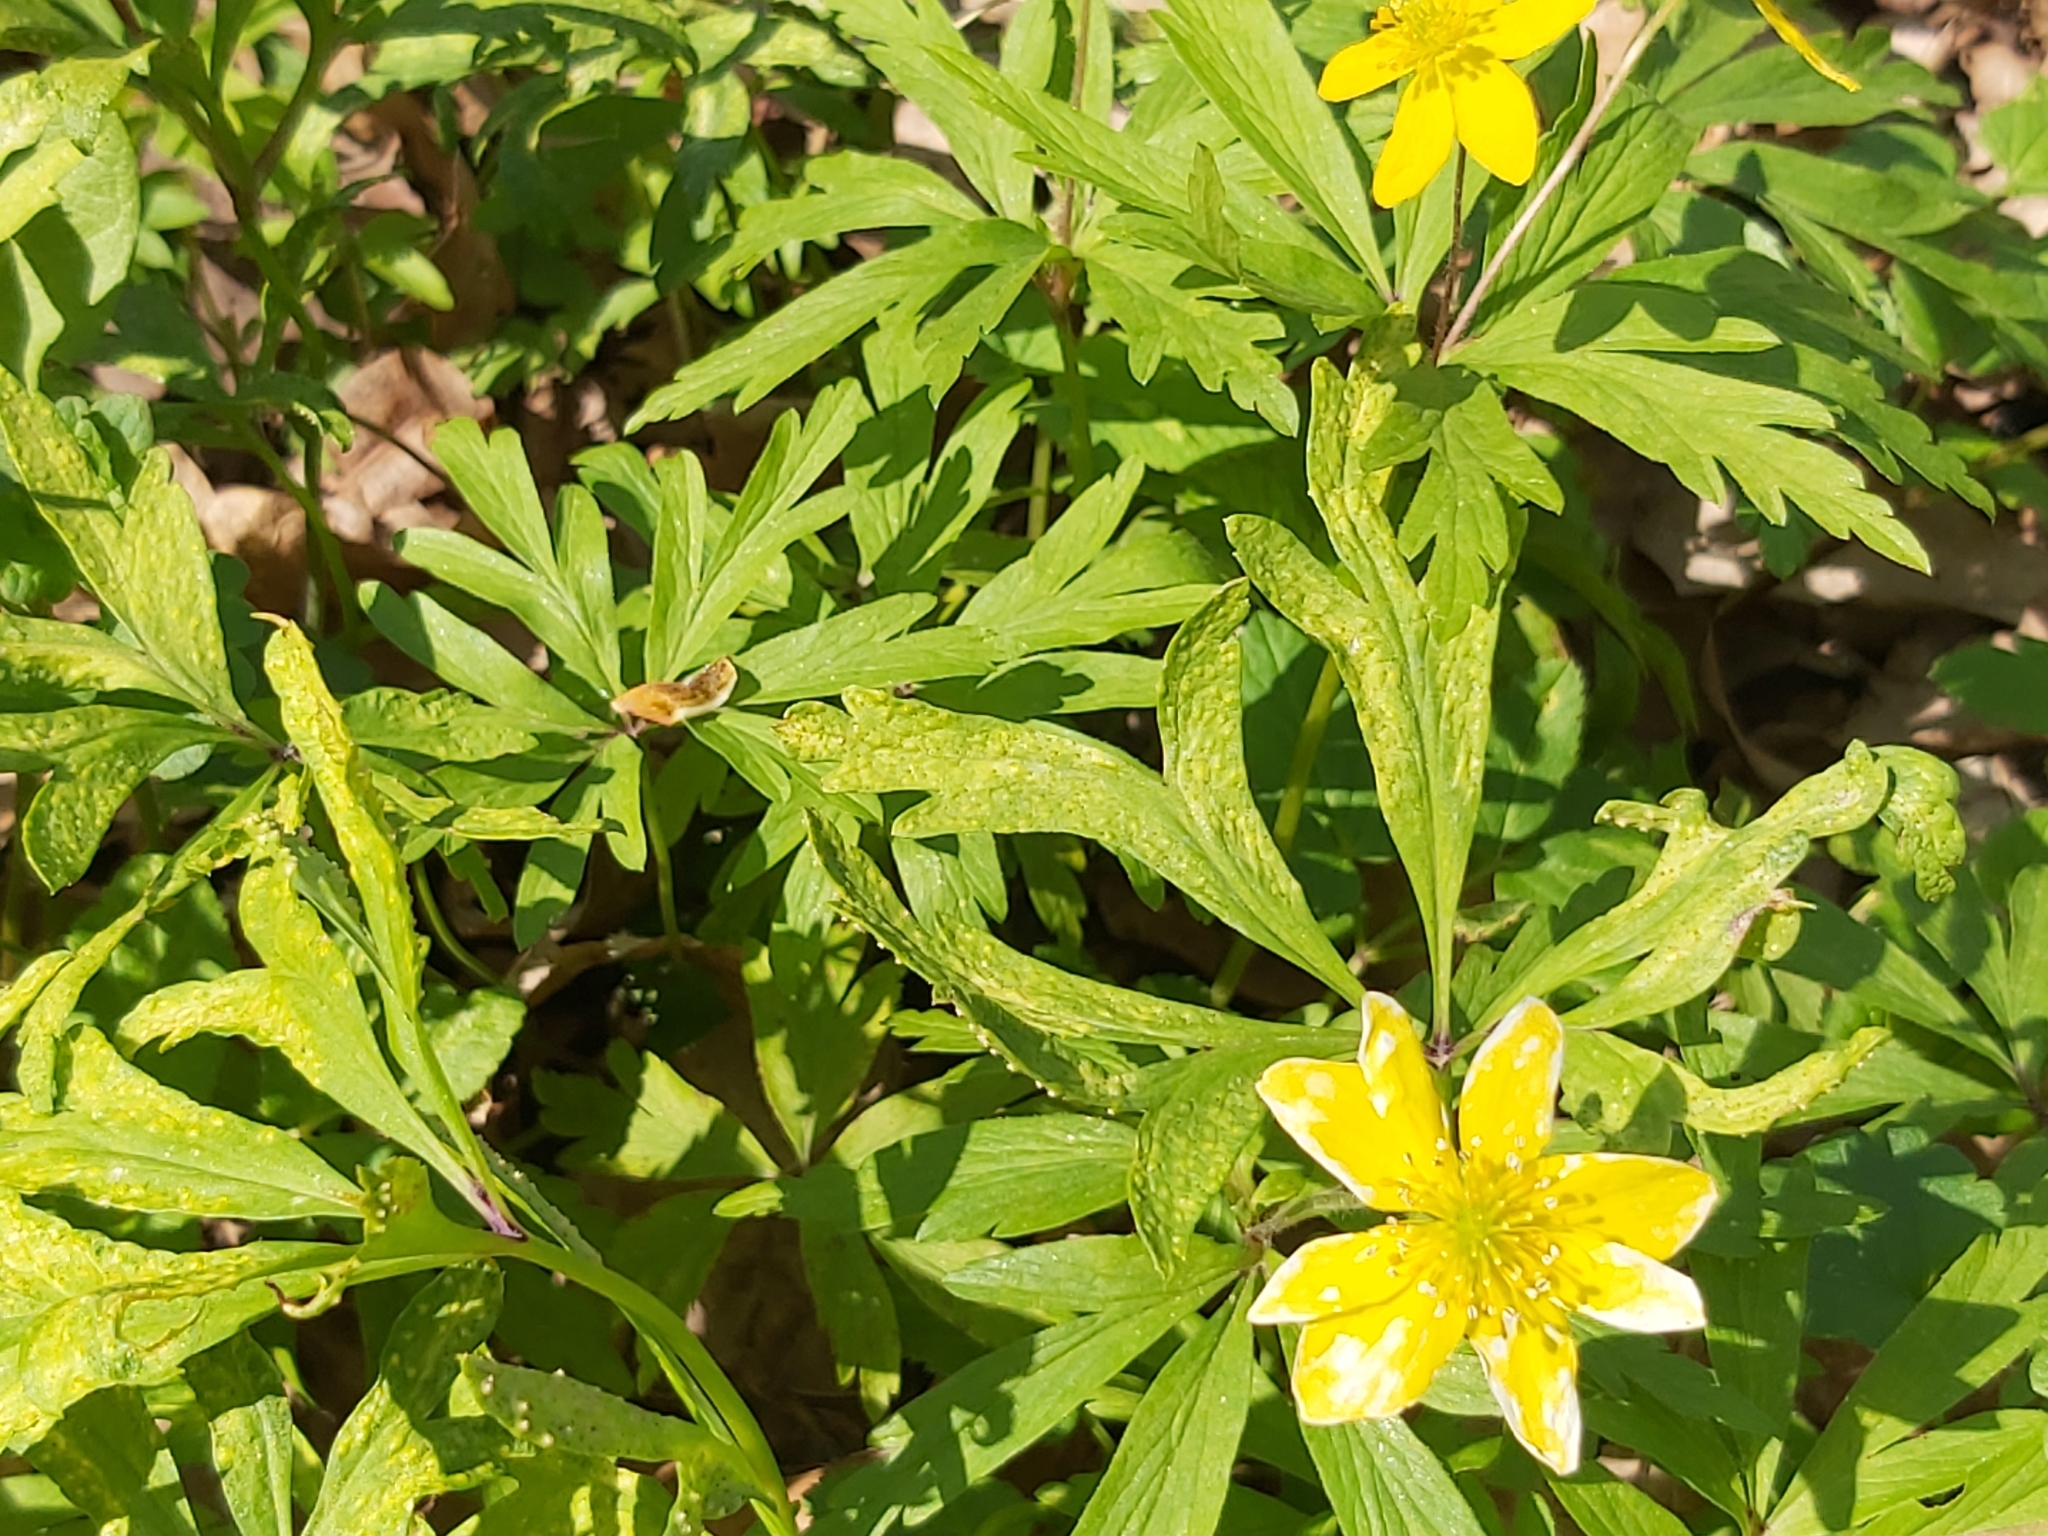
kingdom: Plantae
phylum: Tracheophyta
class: Magnoliopsida
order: Ranunculales
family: Ranunculaceae
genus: Anemone
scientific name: Anemone ranunculoides
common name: Yellow anemone
